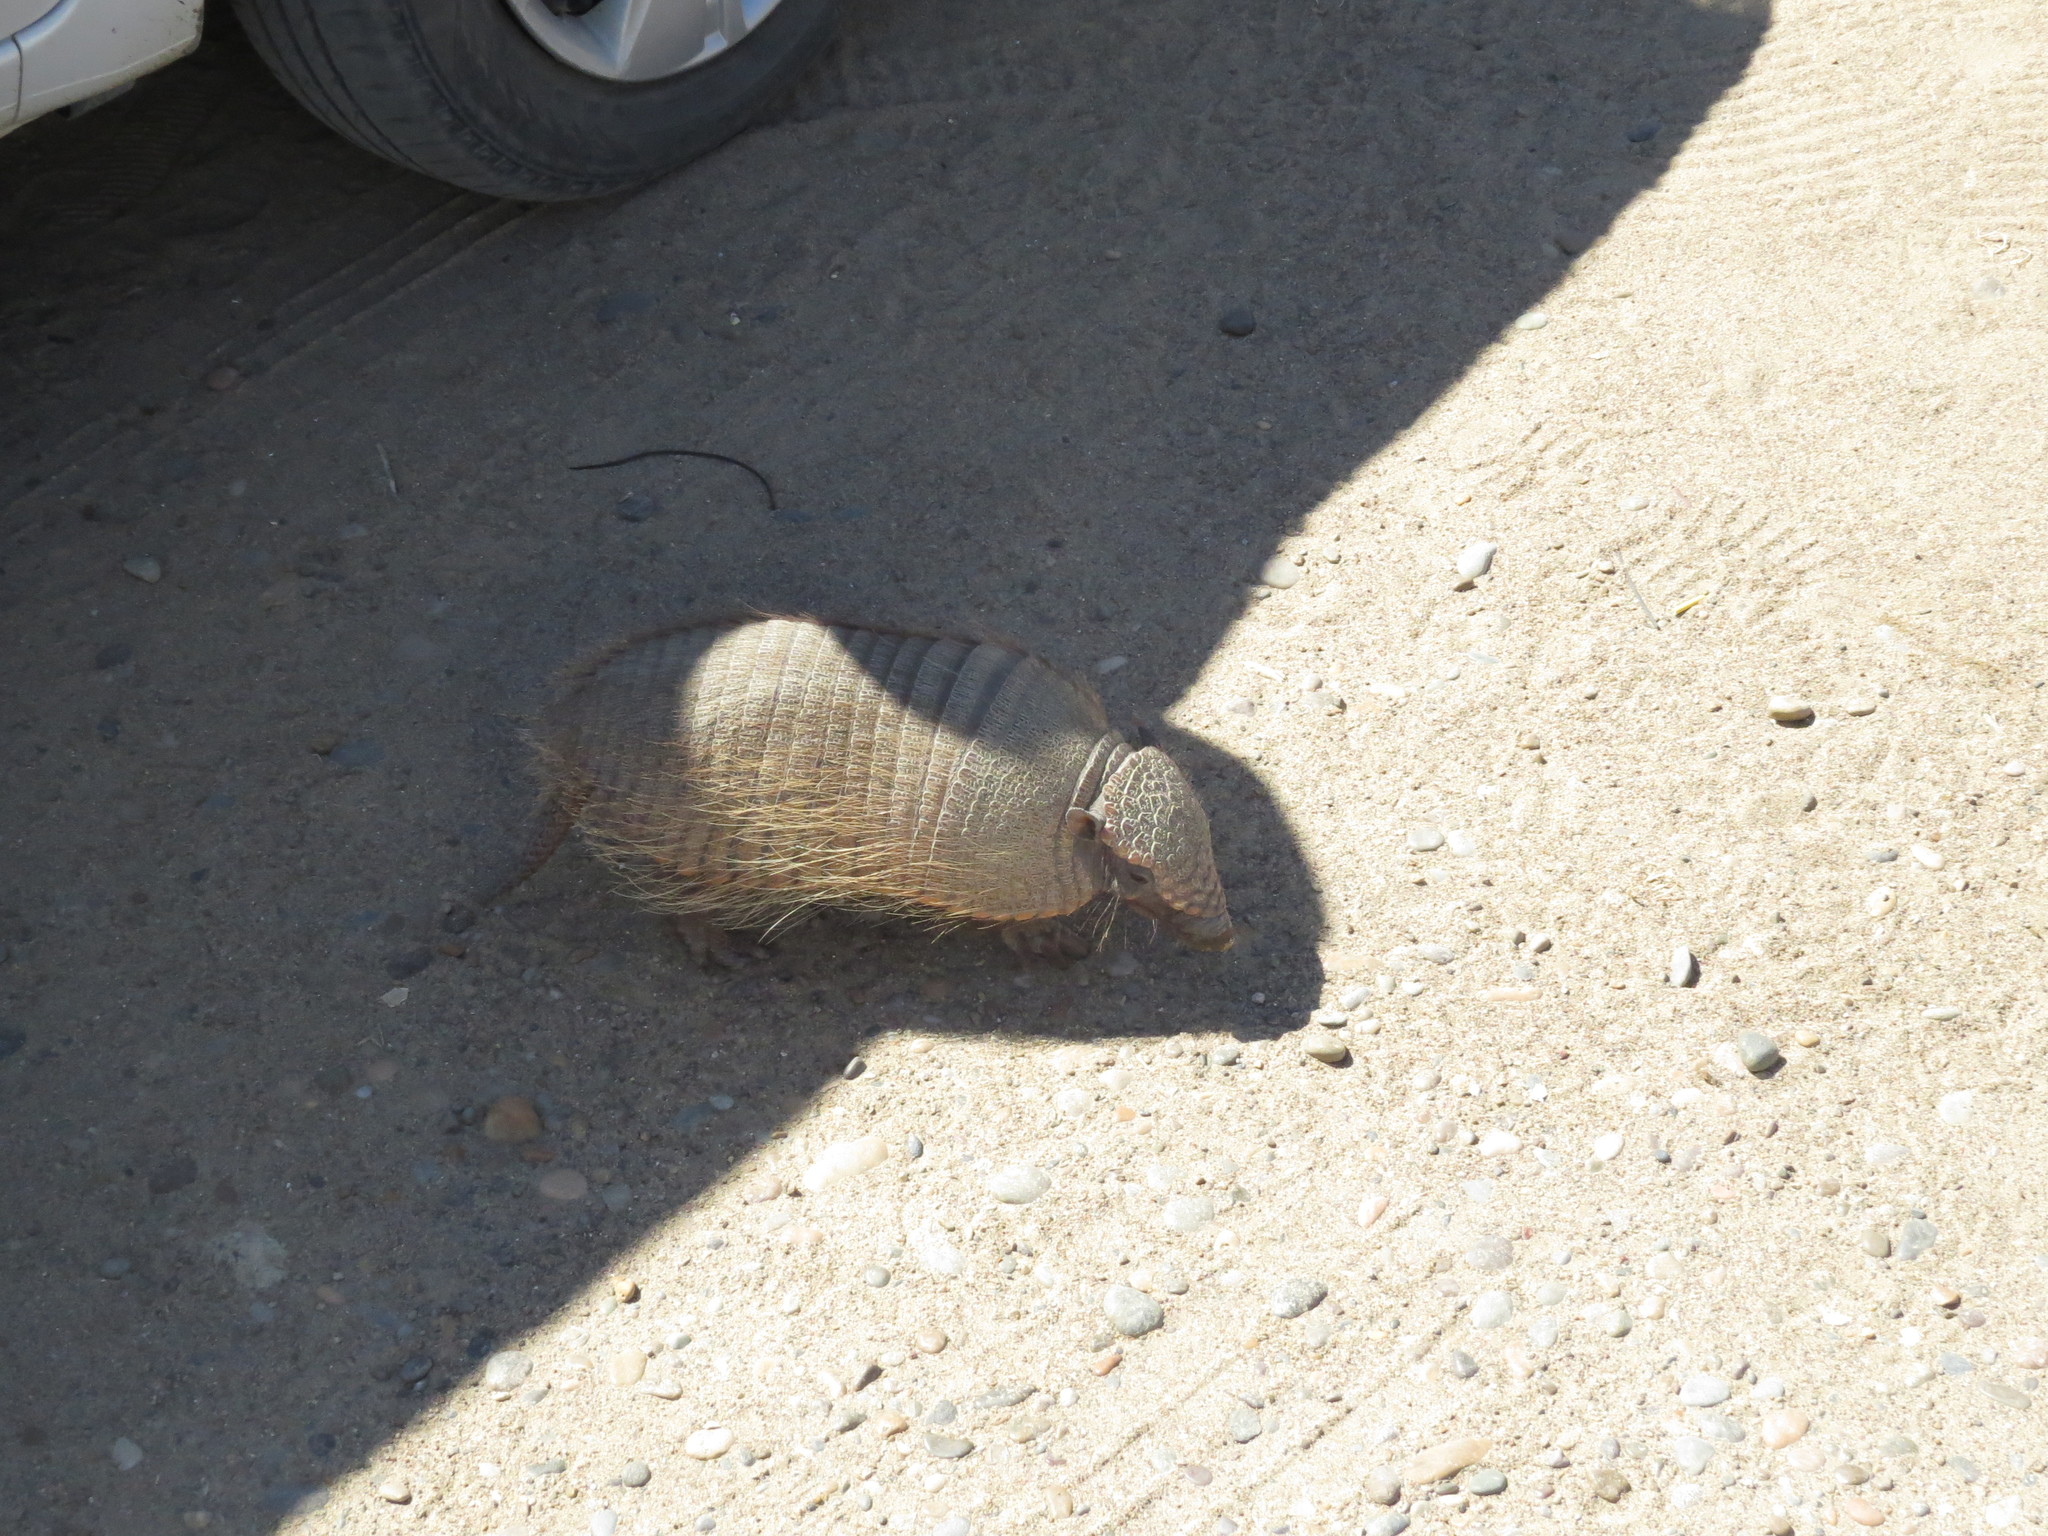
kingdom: Animalia
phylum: Chordata
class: Mammalia
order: Cingulata
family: Dasypodidae
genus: Chaetophractus
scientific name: Chaetophractus villosus
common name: Big hairy armadillo
